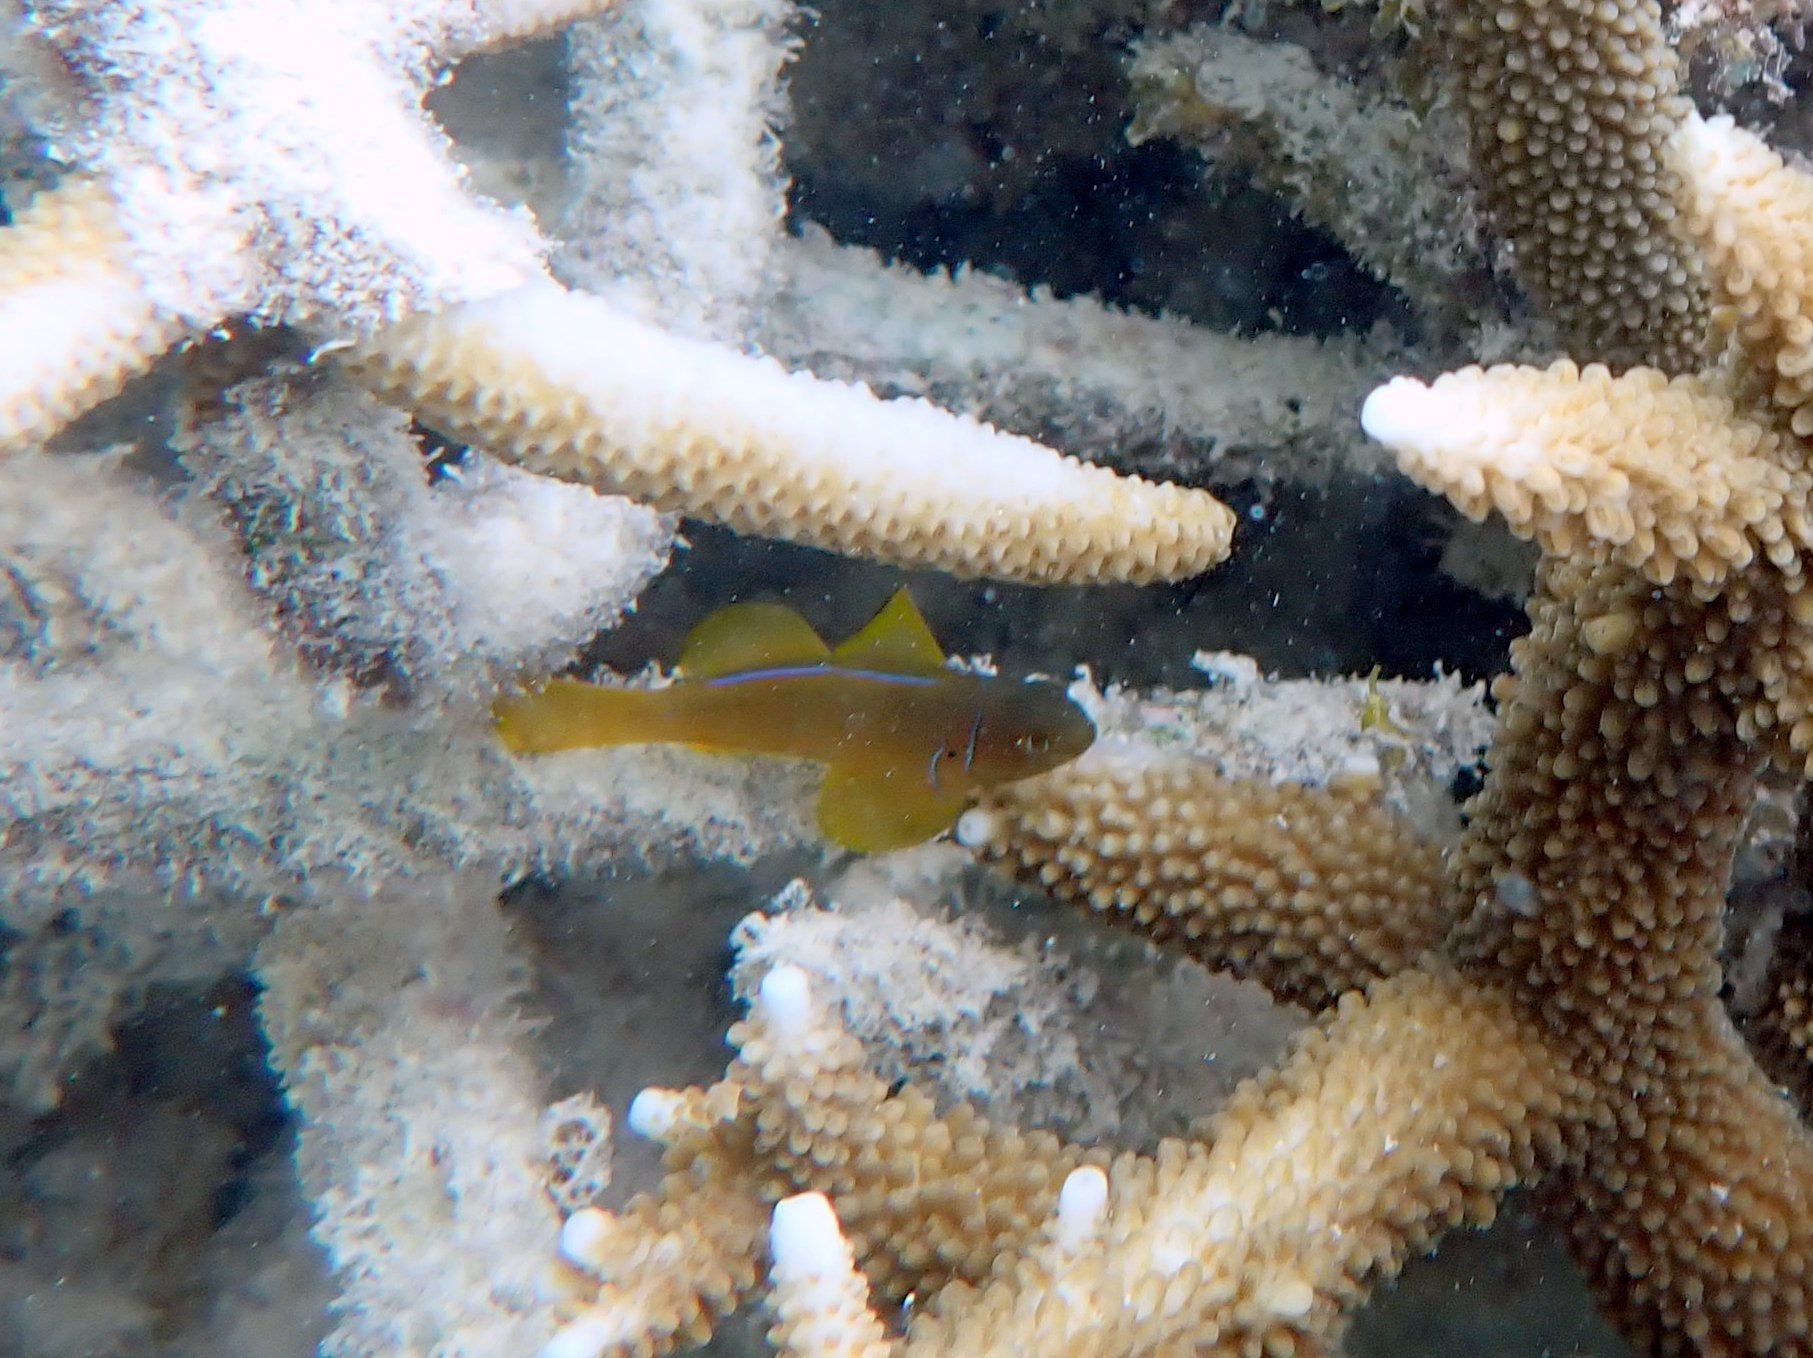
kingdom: Animalia
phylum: Chordata
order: Perciformes
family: Gobiidae
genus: Gobiodon
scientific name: Gobiodon citrinus
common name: Citron goby
